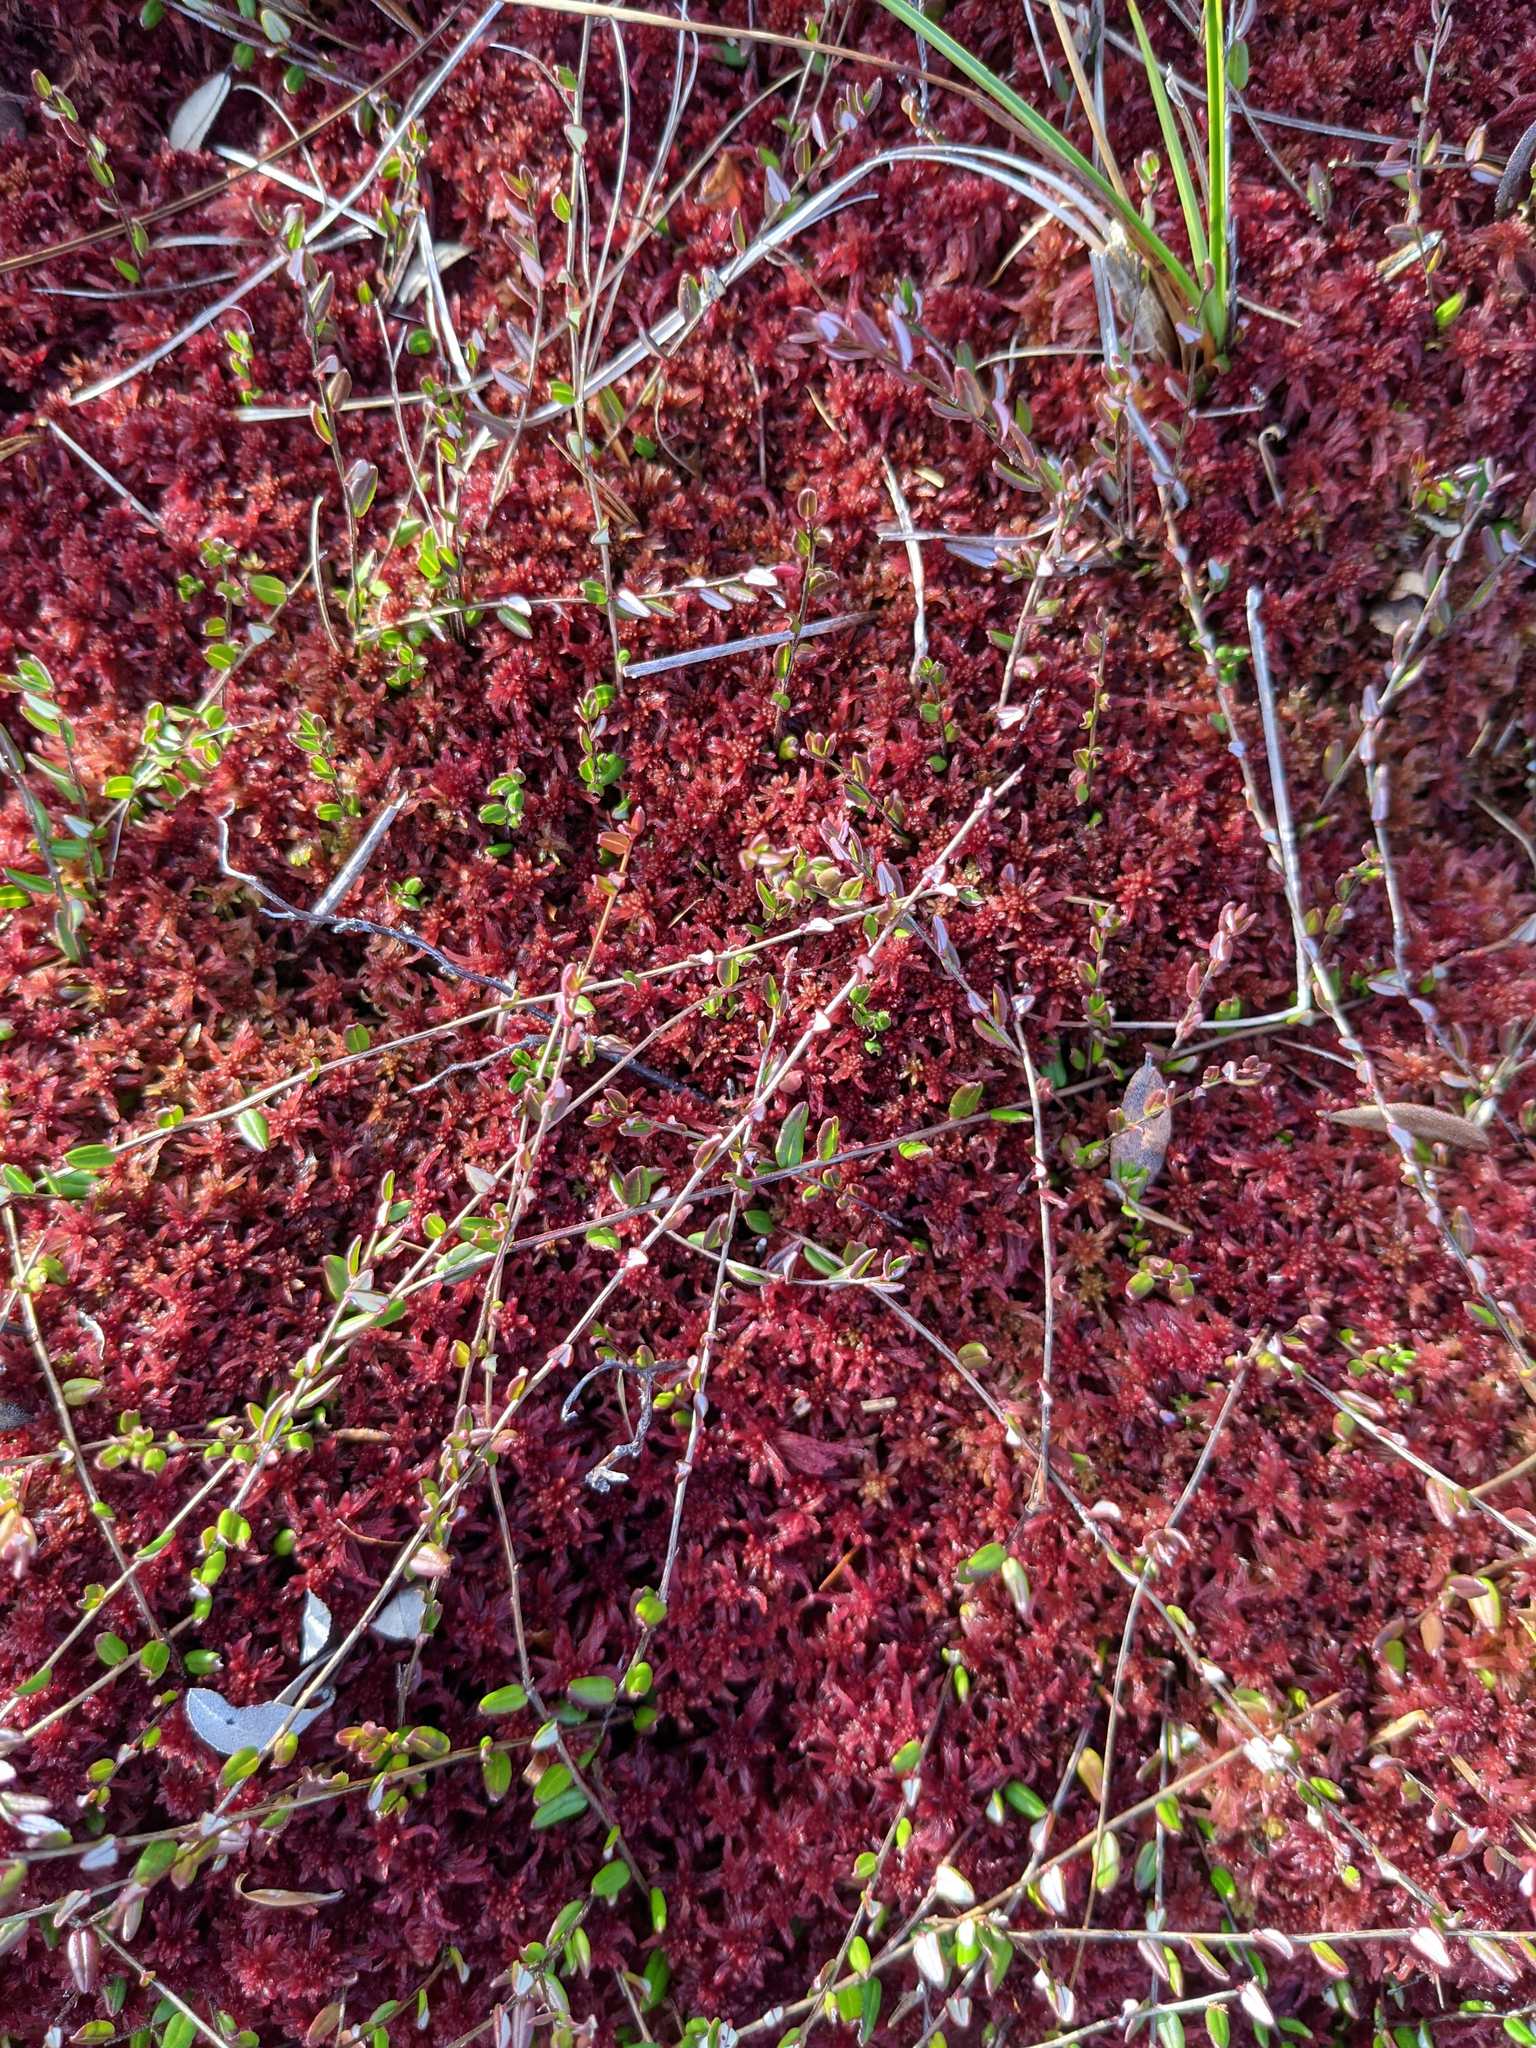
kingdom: Plantae
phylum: Tracheophyta
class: Magnoliopsida
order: Ericales
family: Ericaceae
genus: Vaccinium
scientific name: Vaccinium oxycoccos
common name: Cranberry
